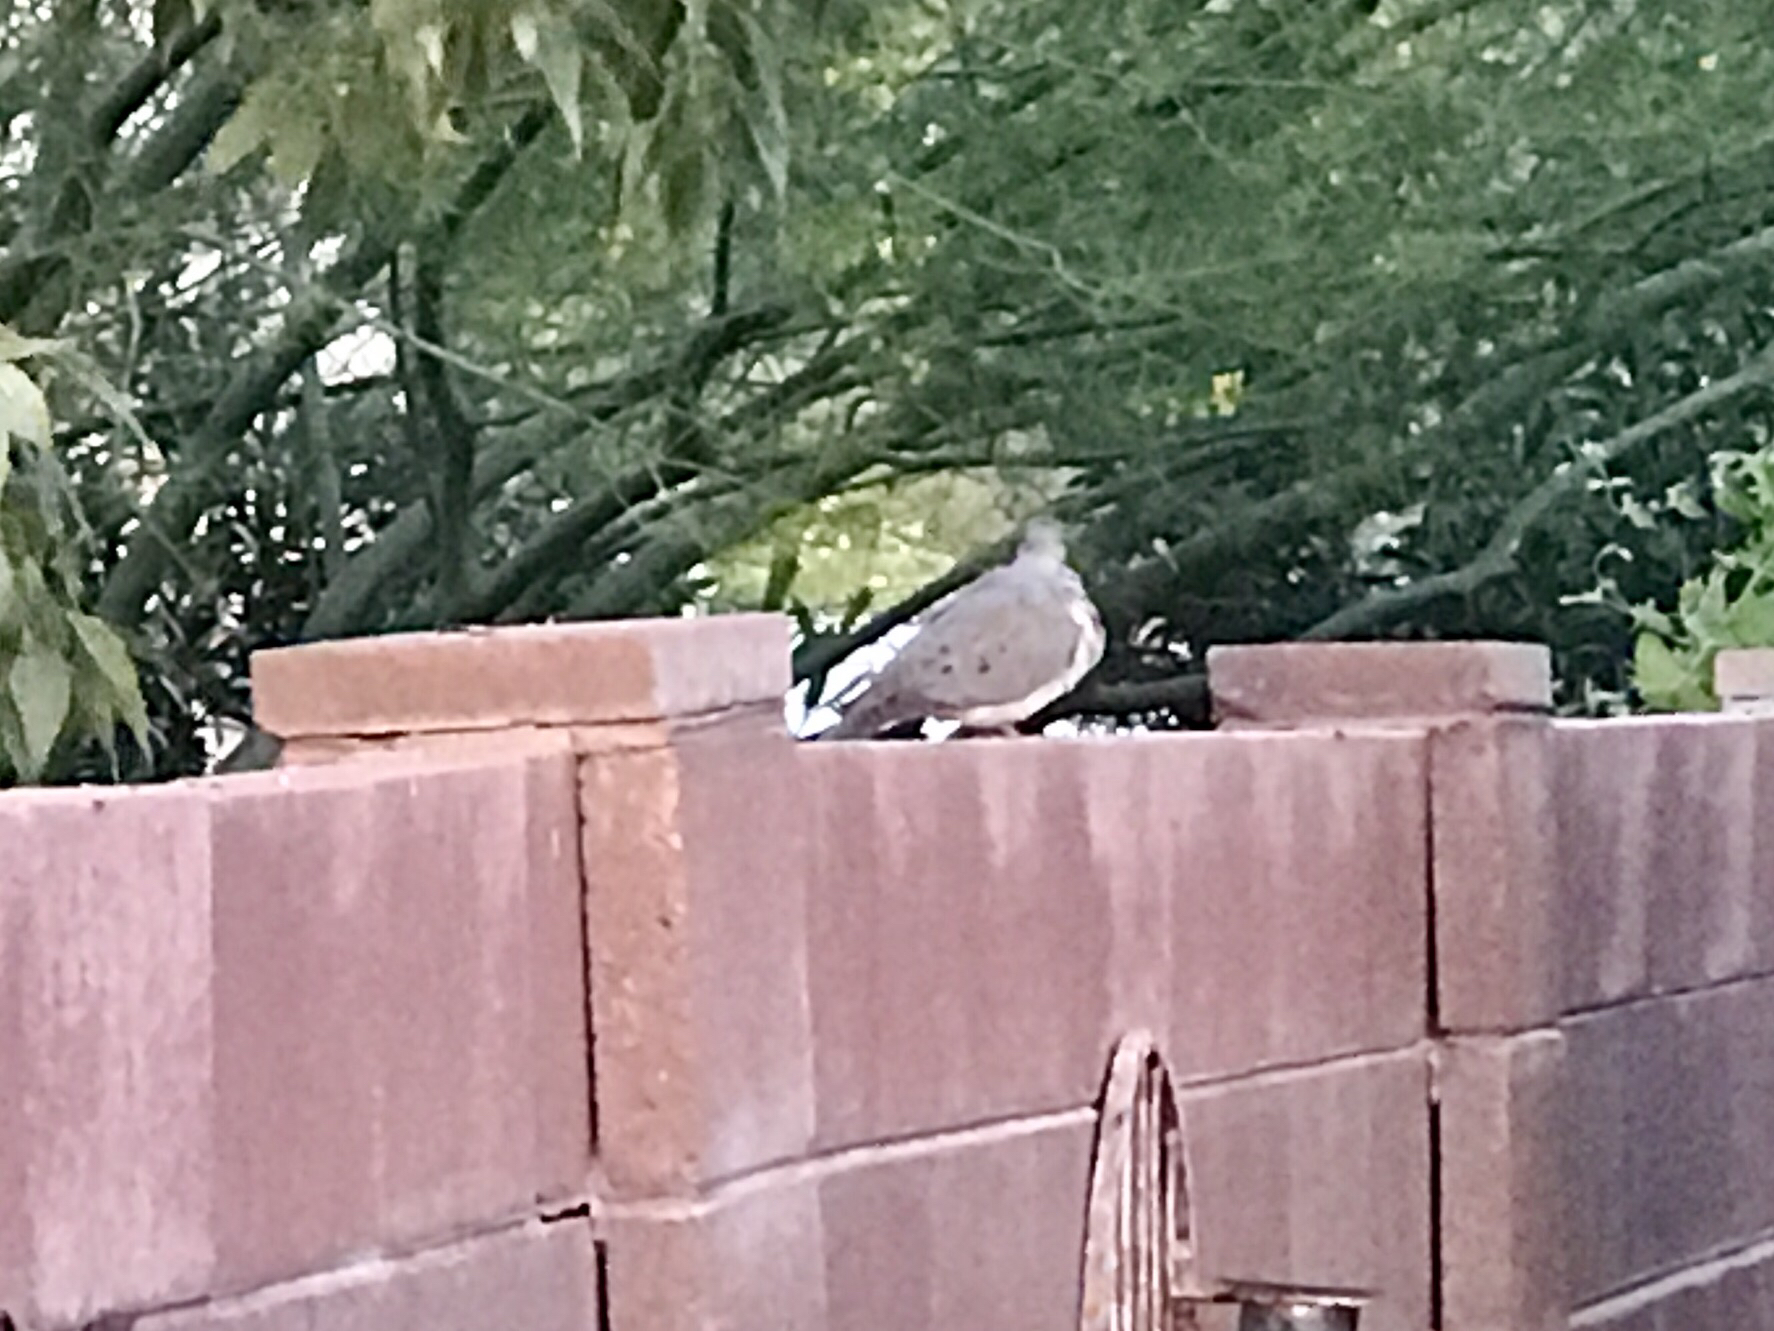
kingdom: Animalia
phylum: Chordata
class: Aves
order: Columbiformes
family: Columbidae
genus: Zenaida
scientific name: Zenaida macroura
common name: Mourning dove
